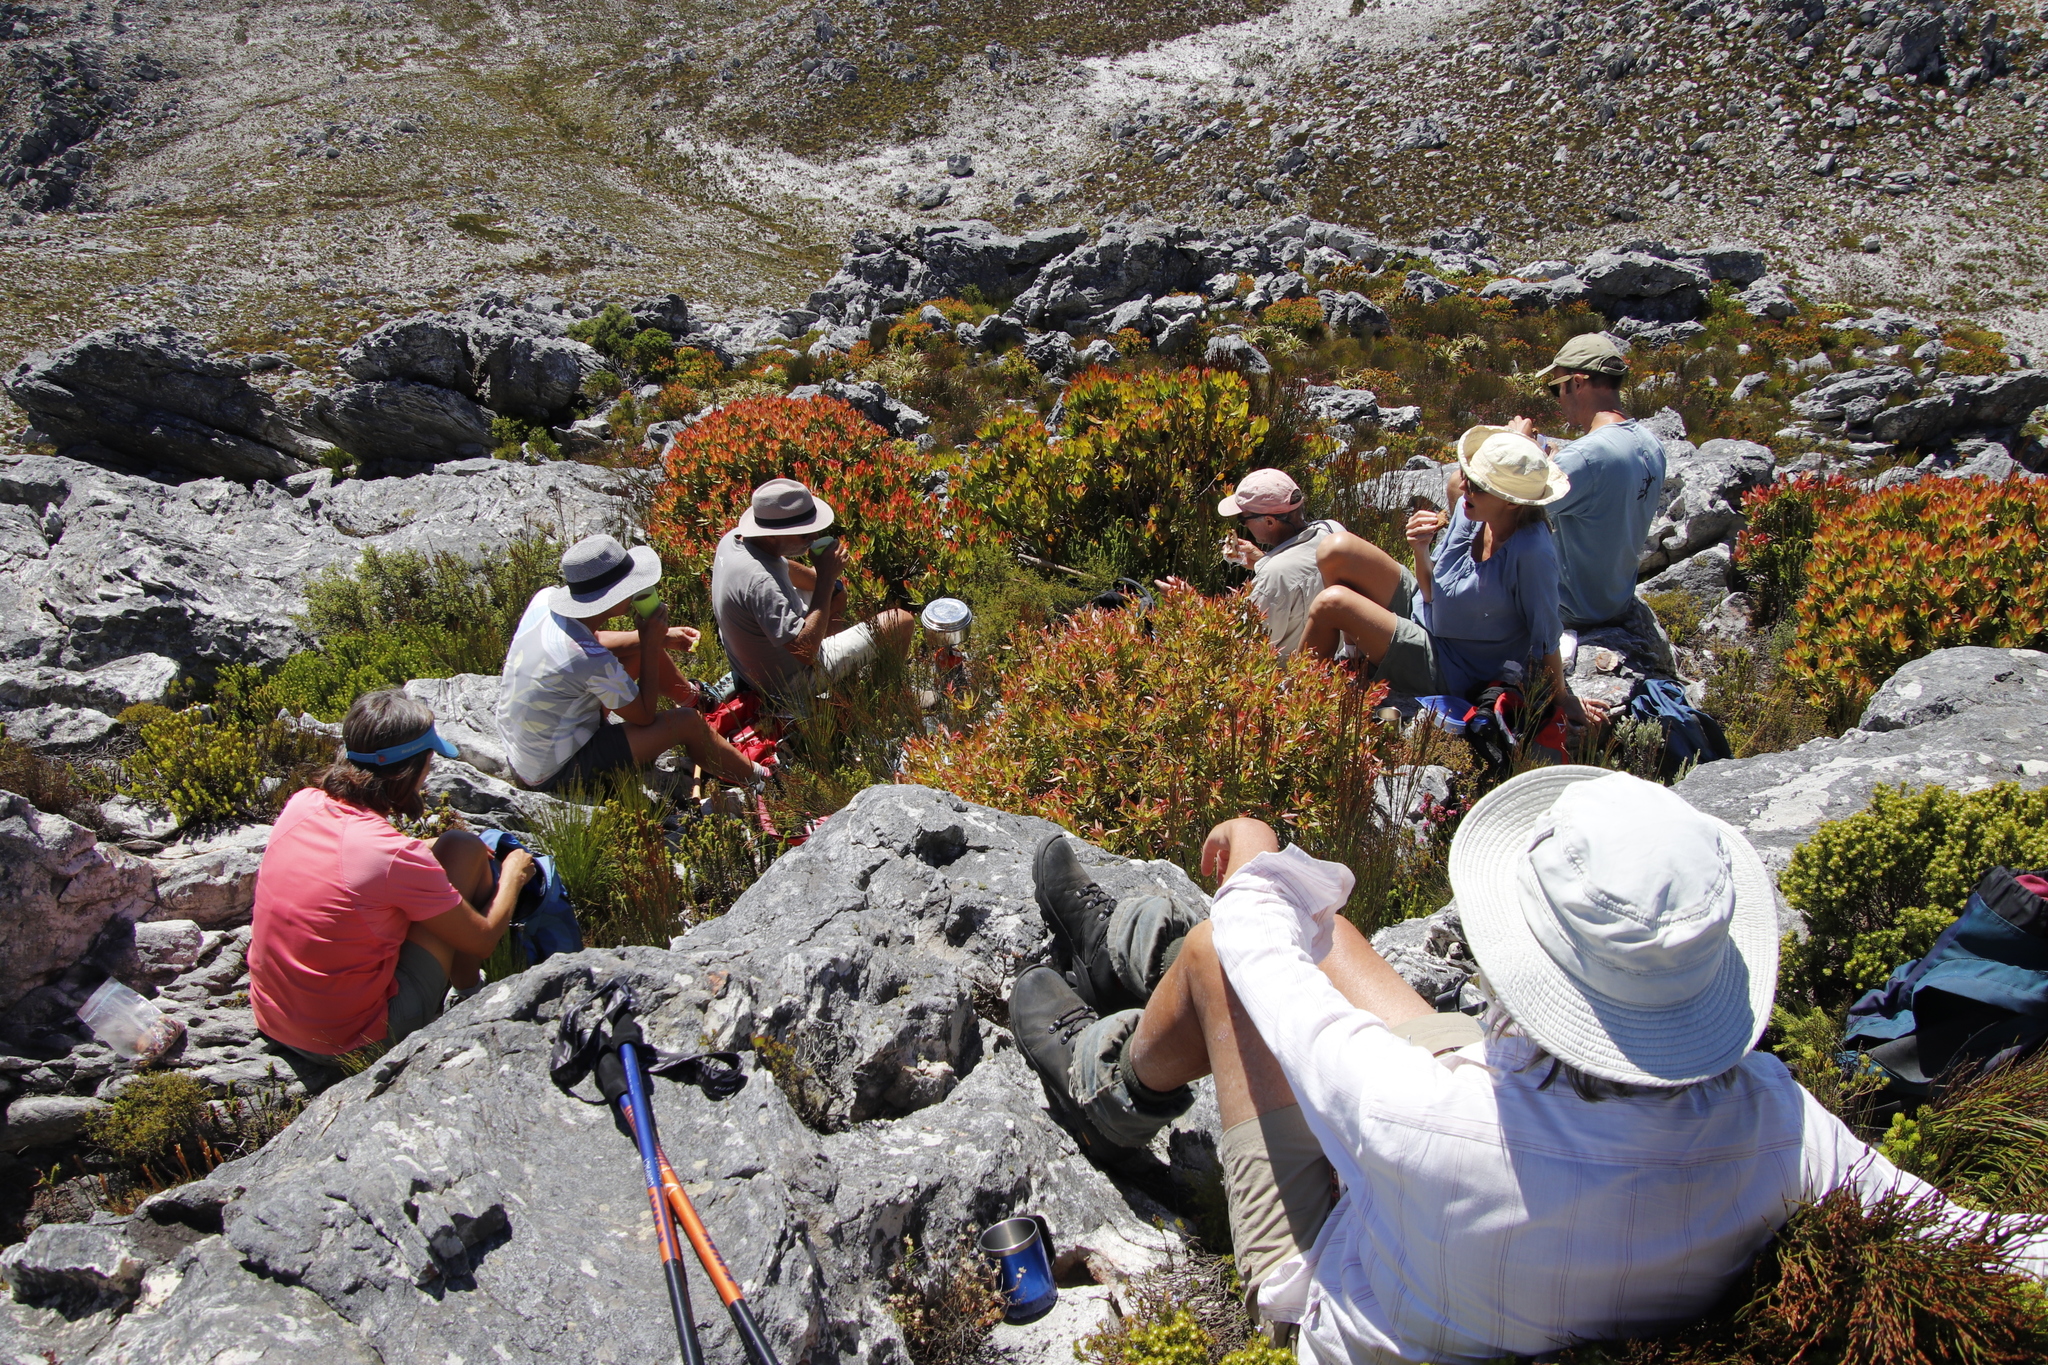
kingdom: Plantae
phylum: Tracheophyta
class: Magnoliopsida
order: Proteales
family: Proteaceae
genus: Leucadendron
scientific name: Leucadendron gandogeri
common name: Broad-leaf conebush
